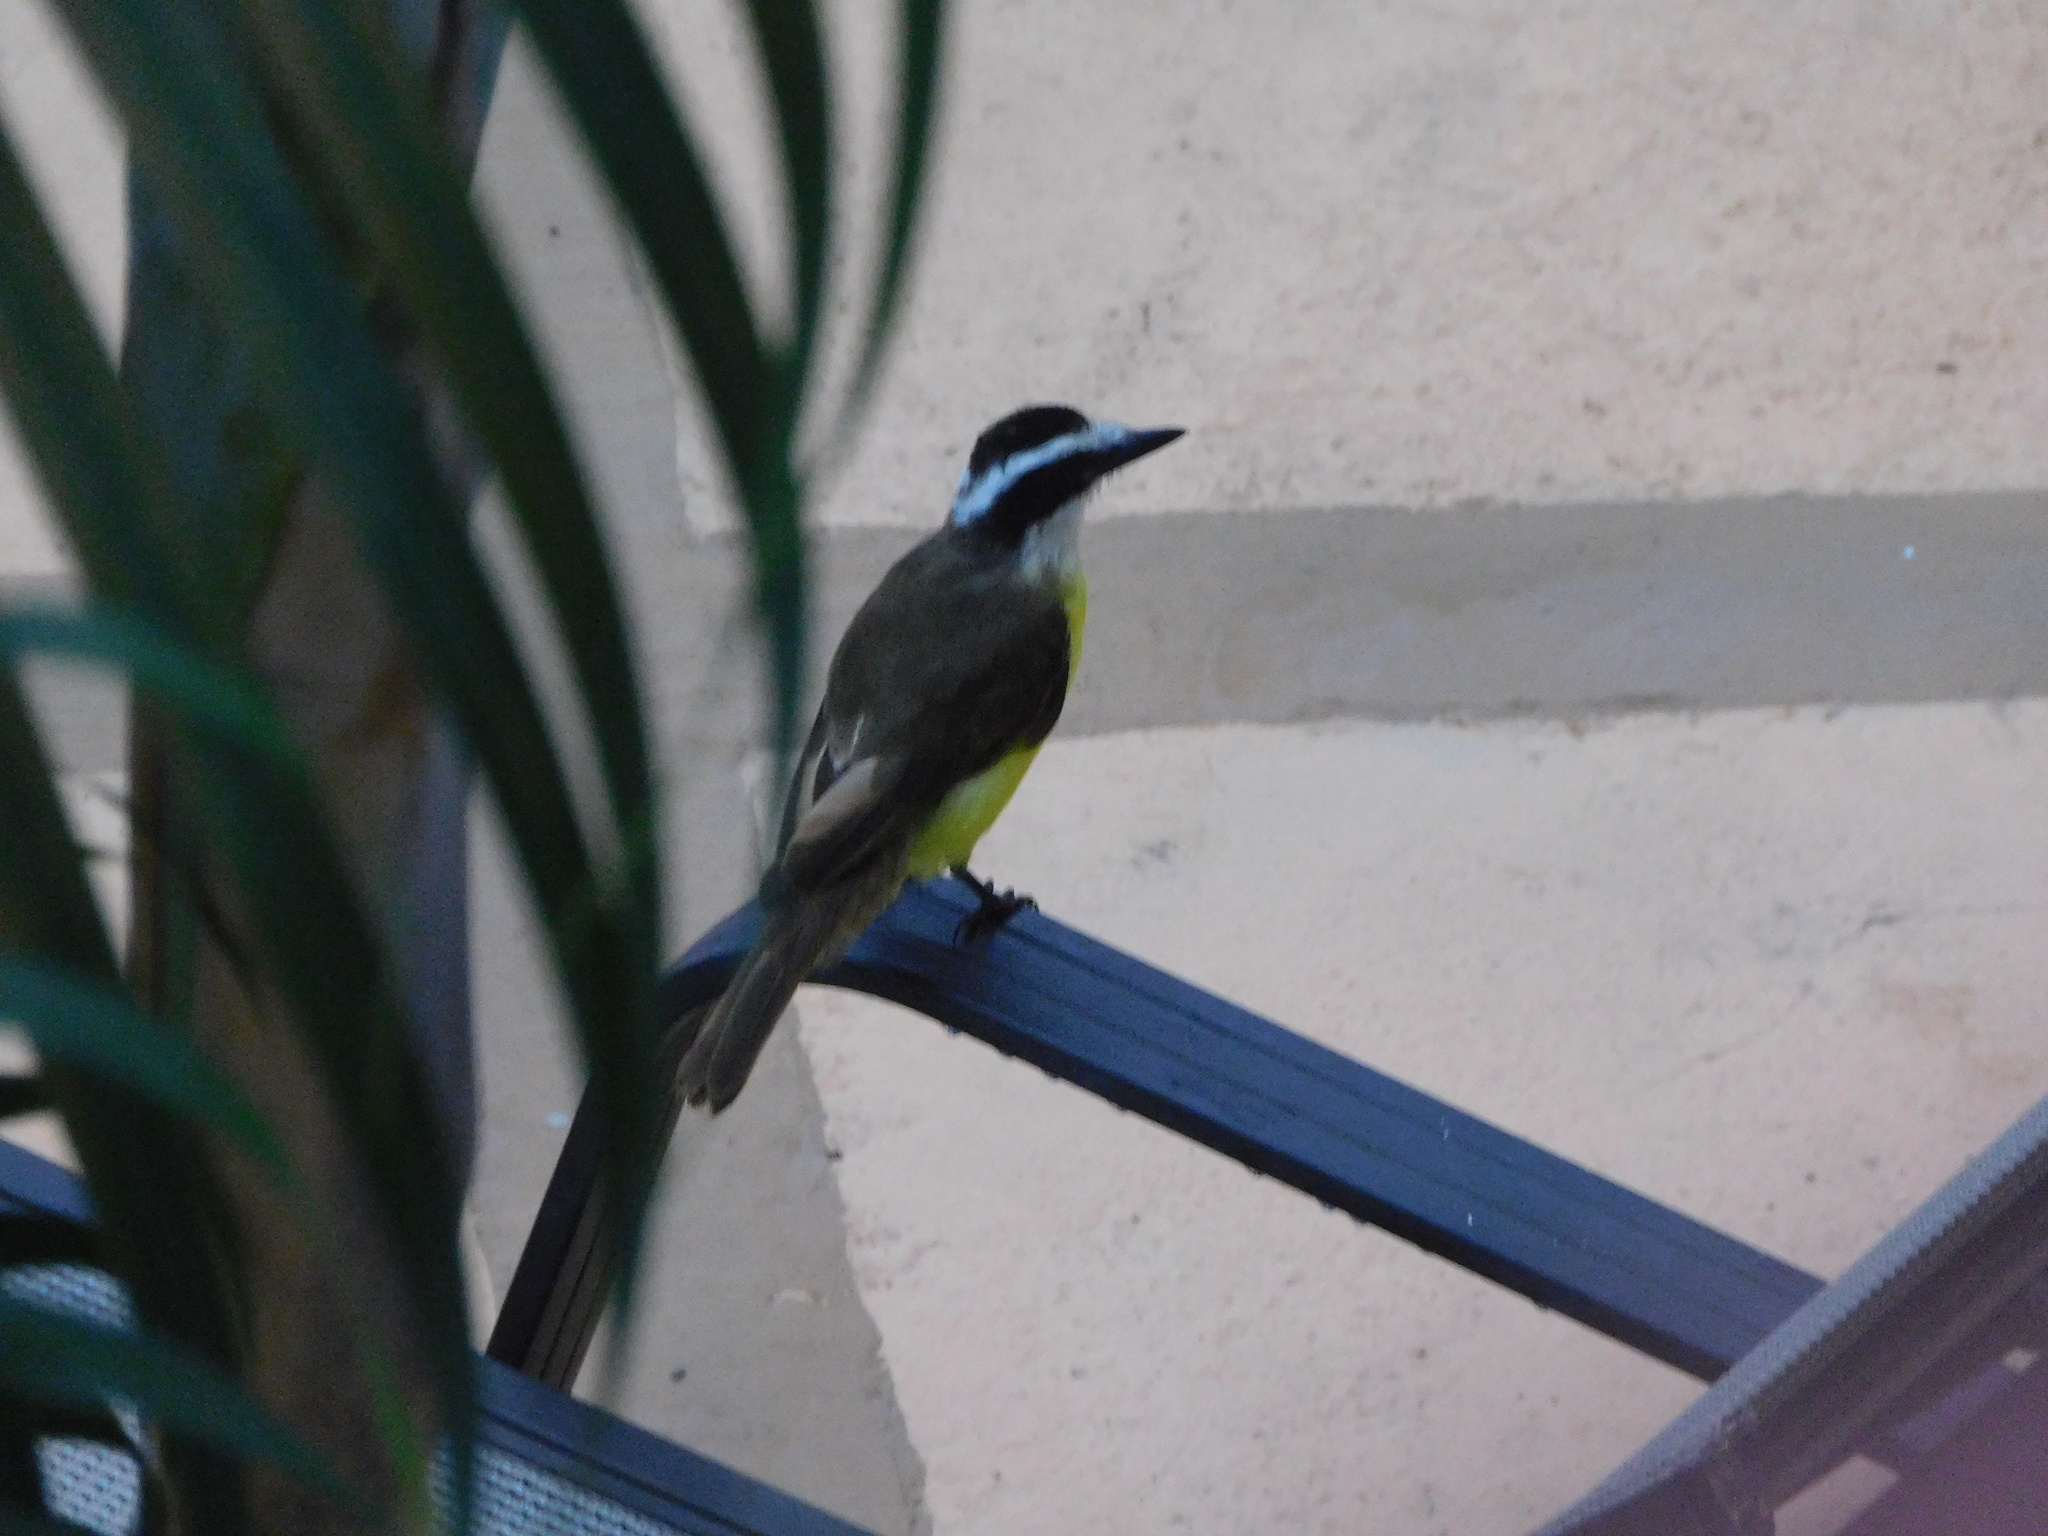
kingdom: Animalia
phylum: Chordata
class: Aves
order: Passeriformes
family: Tyrannidae
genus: Pitangus
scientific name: Pitangus sulphuratus
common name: Great kiskadee
